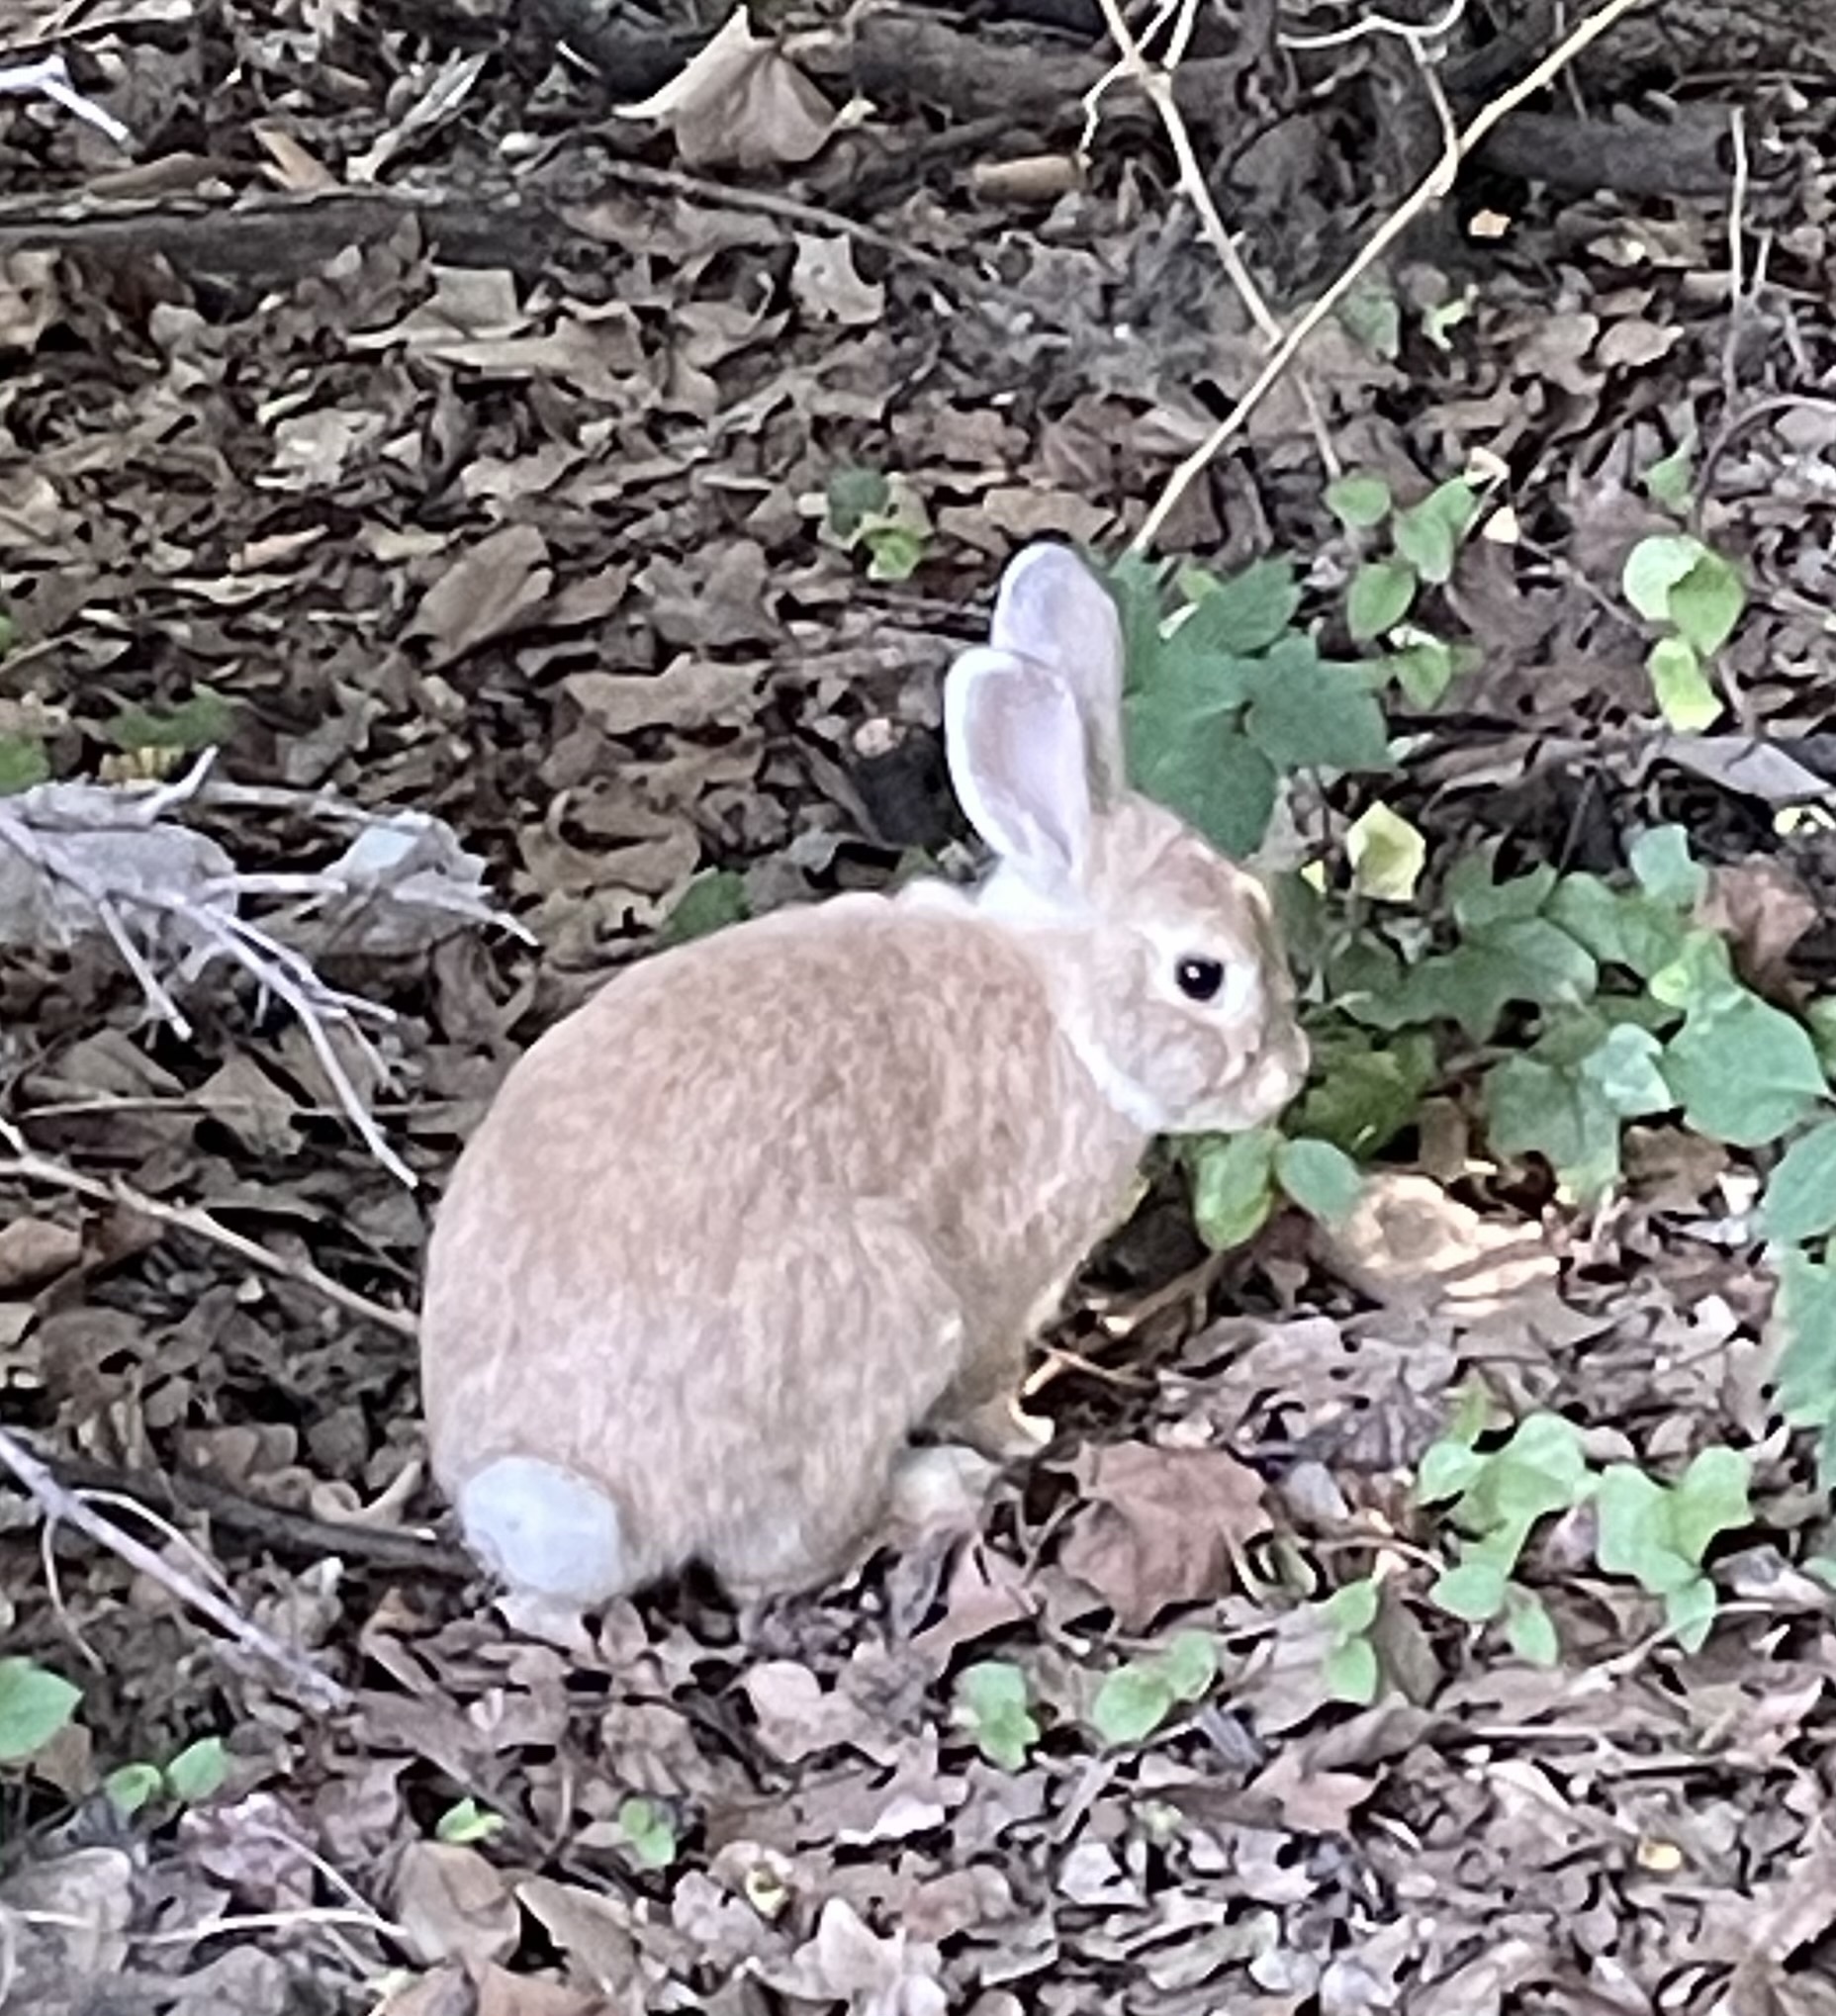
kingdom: Animalia
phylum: Chordata
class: Mammalia
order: Lagomorpha
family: Leporidae
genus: Oryctolagus
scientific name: Oryctolagus cuniculus
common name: European rabbit
